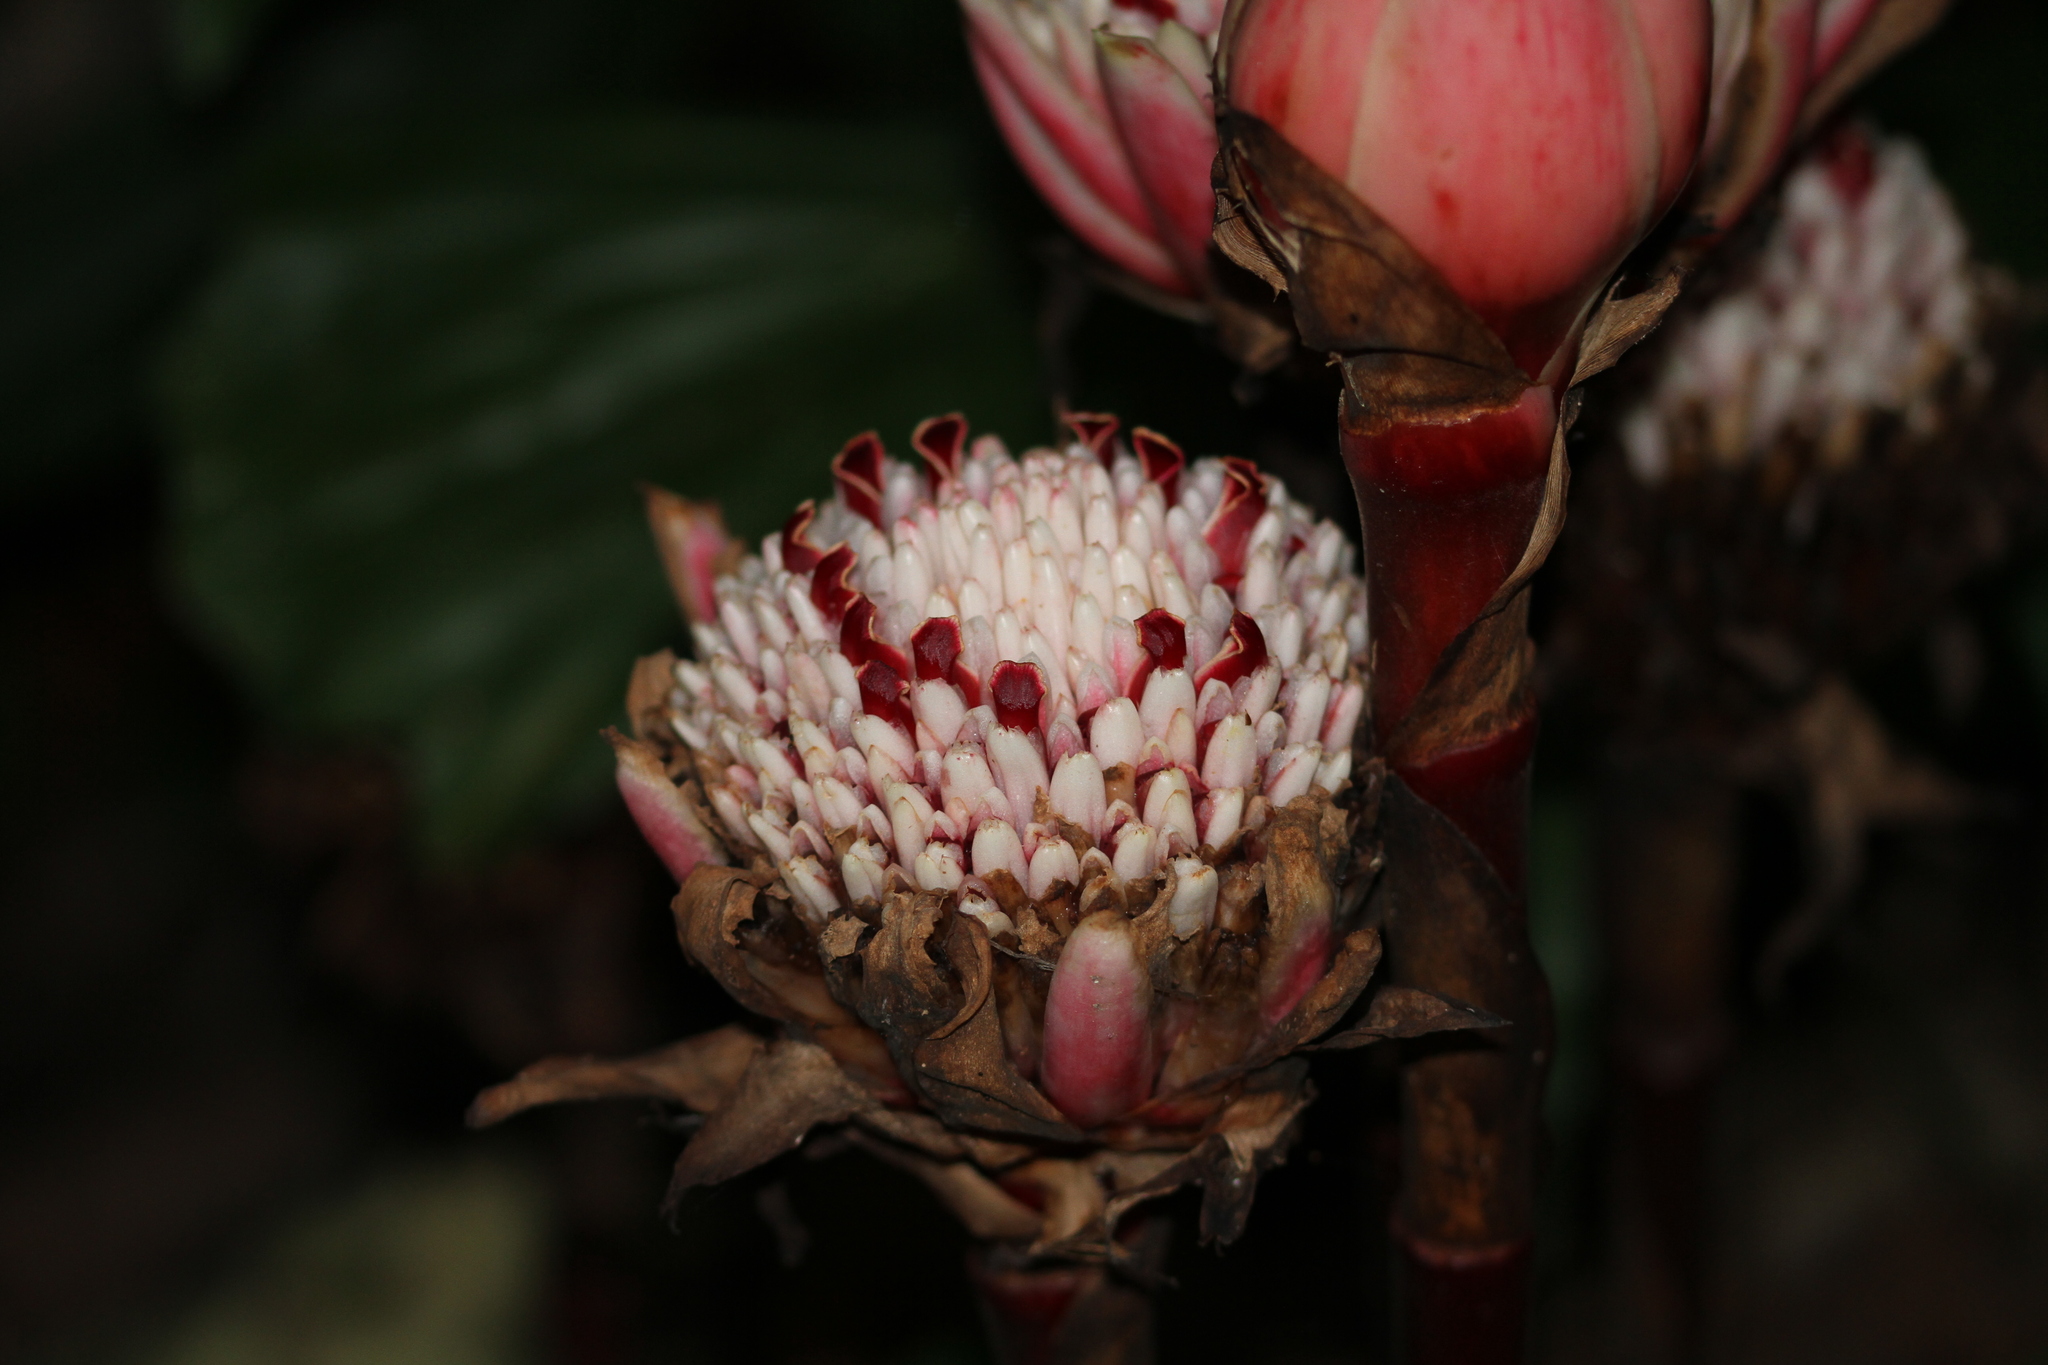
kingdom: Plantae
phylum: Tracheophyta
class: Liliopsida
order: Zingiberales
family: Zingiberaceae
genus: Etlingera
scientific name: Etlingera elatior
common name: Philippine waxflower
